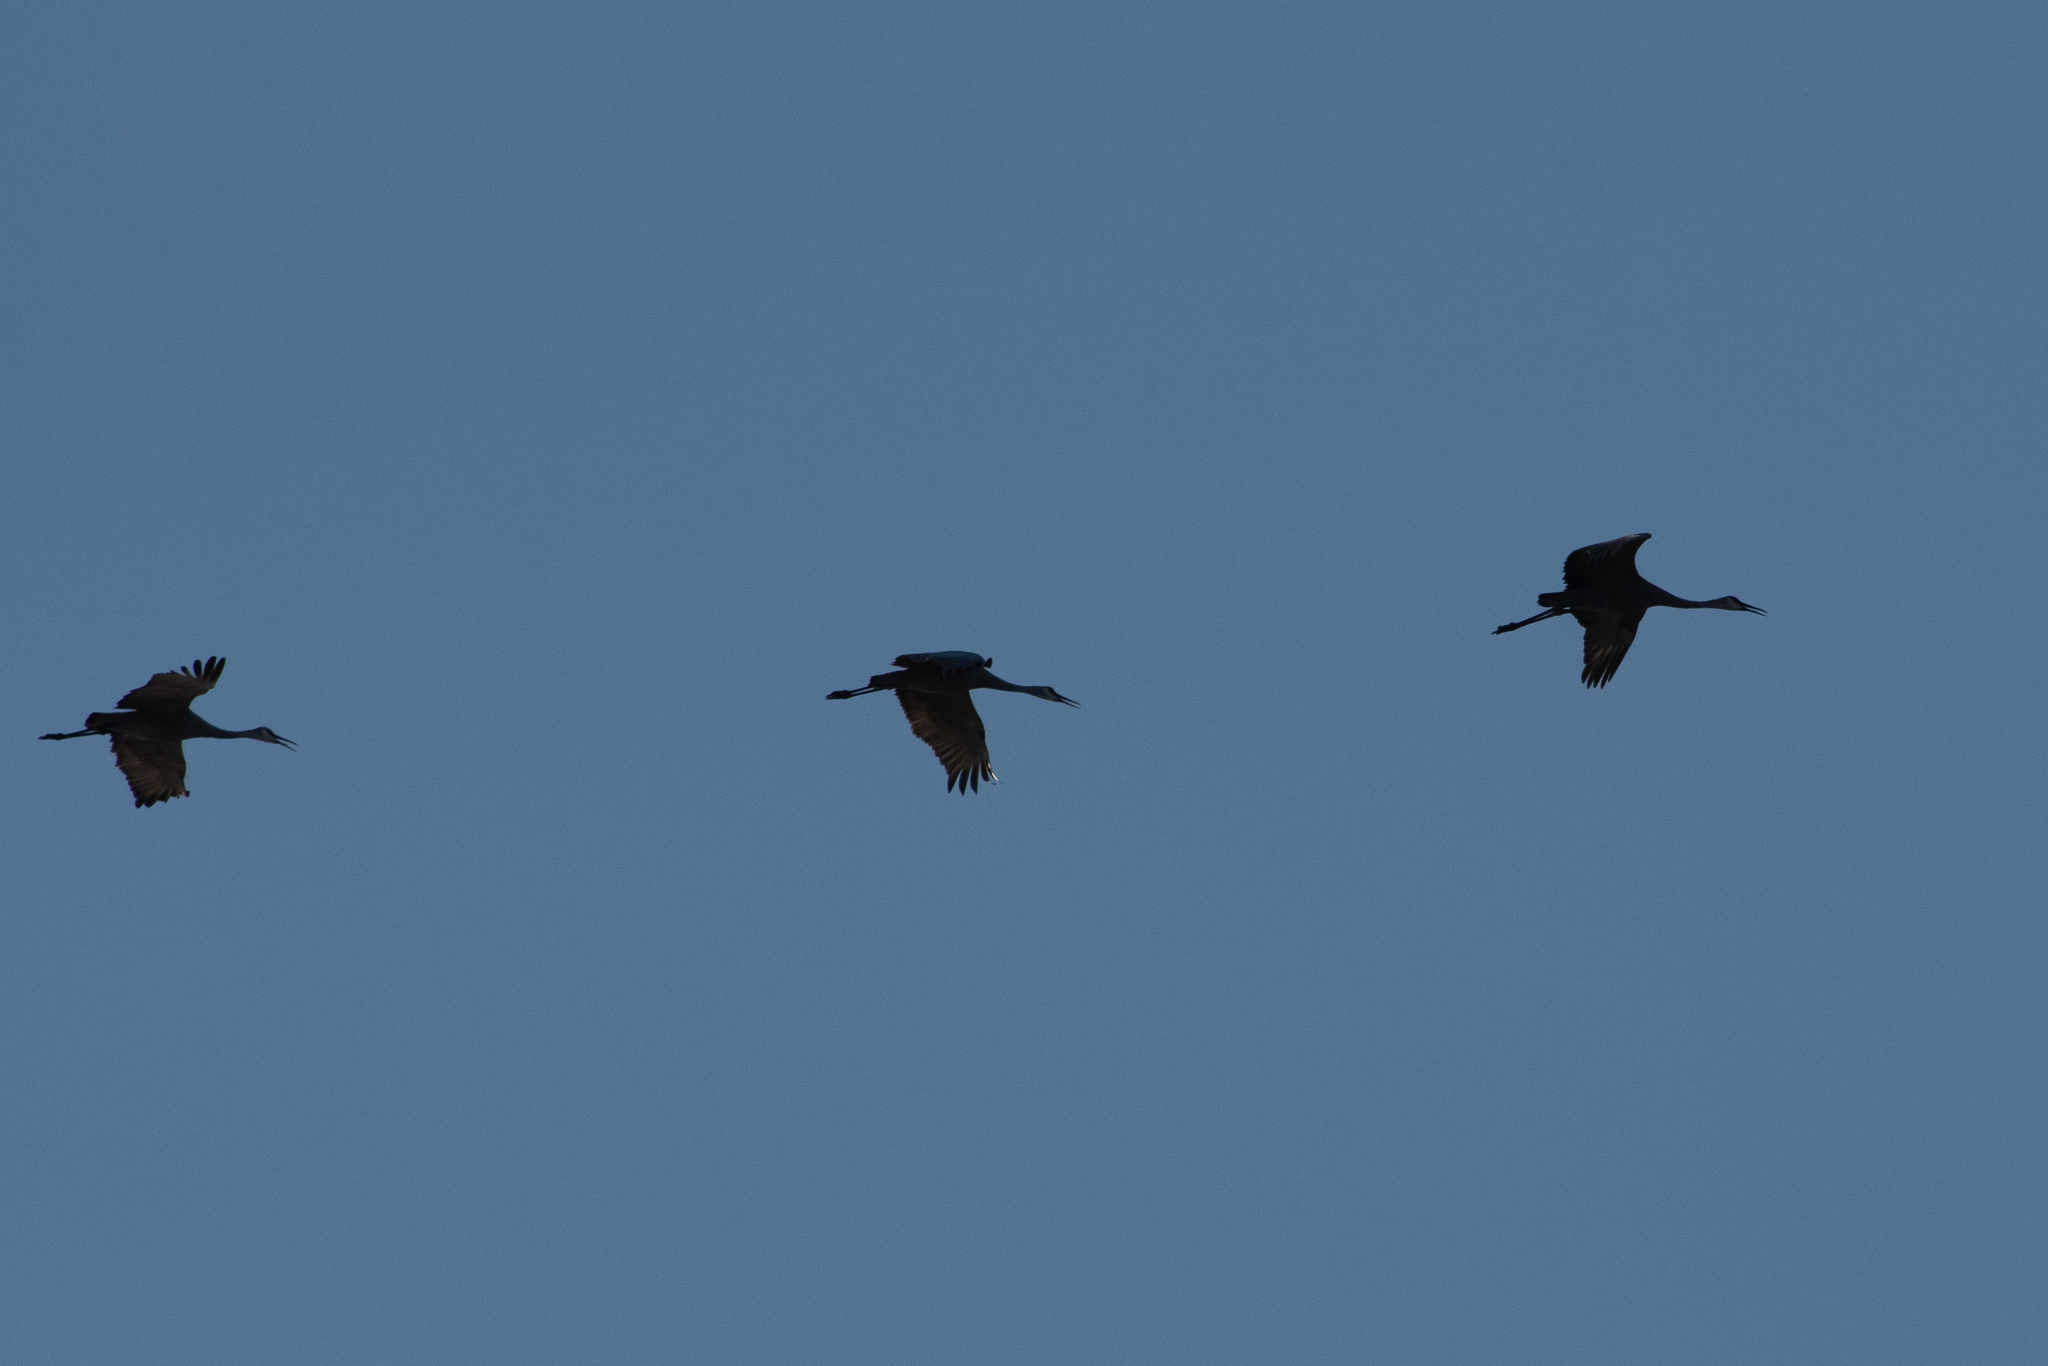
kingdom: Animalia
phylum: Chordata
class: Aves
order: Gruiformes
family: Gruidae
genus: Grus
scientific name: Grus canadensis
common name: Sandhill crane
